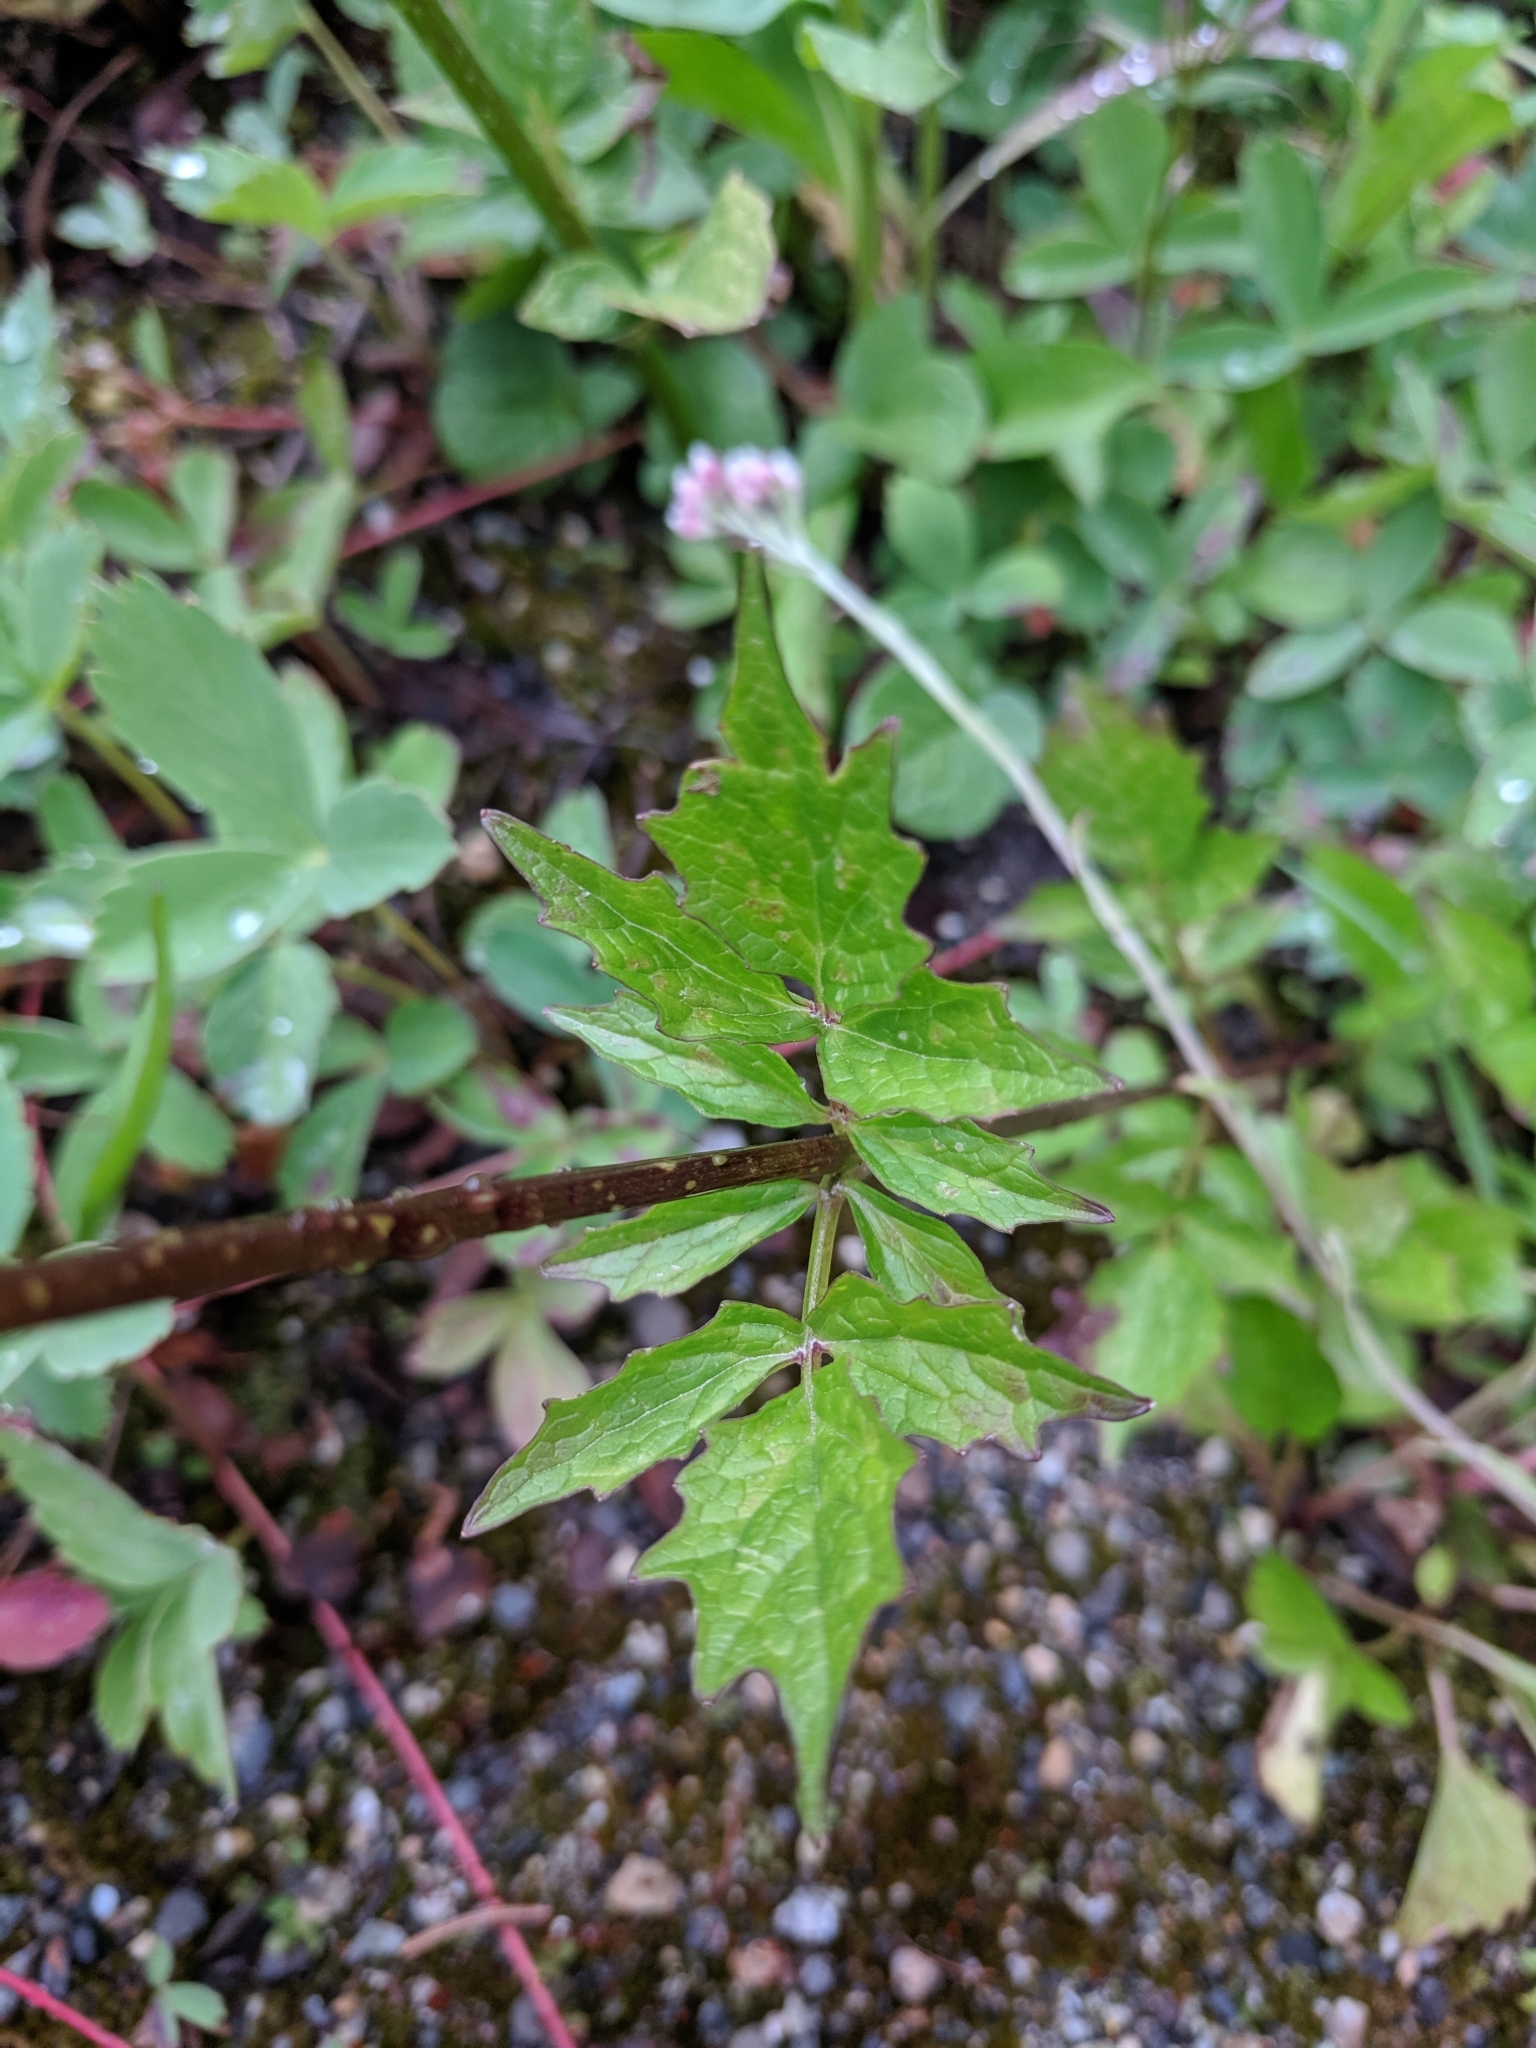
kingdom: Plantae
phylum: Tracheophyta
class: Magnoliopsida
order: Dipsacales
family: Caprifoliaceae
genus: Valeriana
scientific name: Valeriana sitchensis
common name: Pacific valerian
